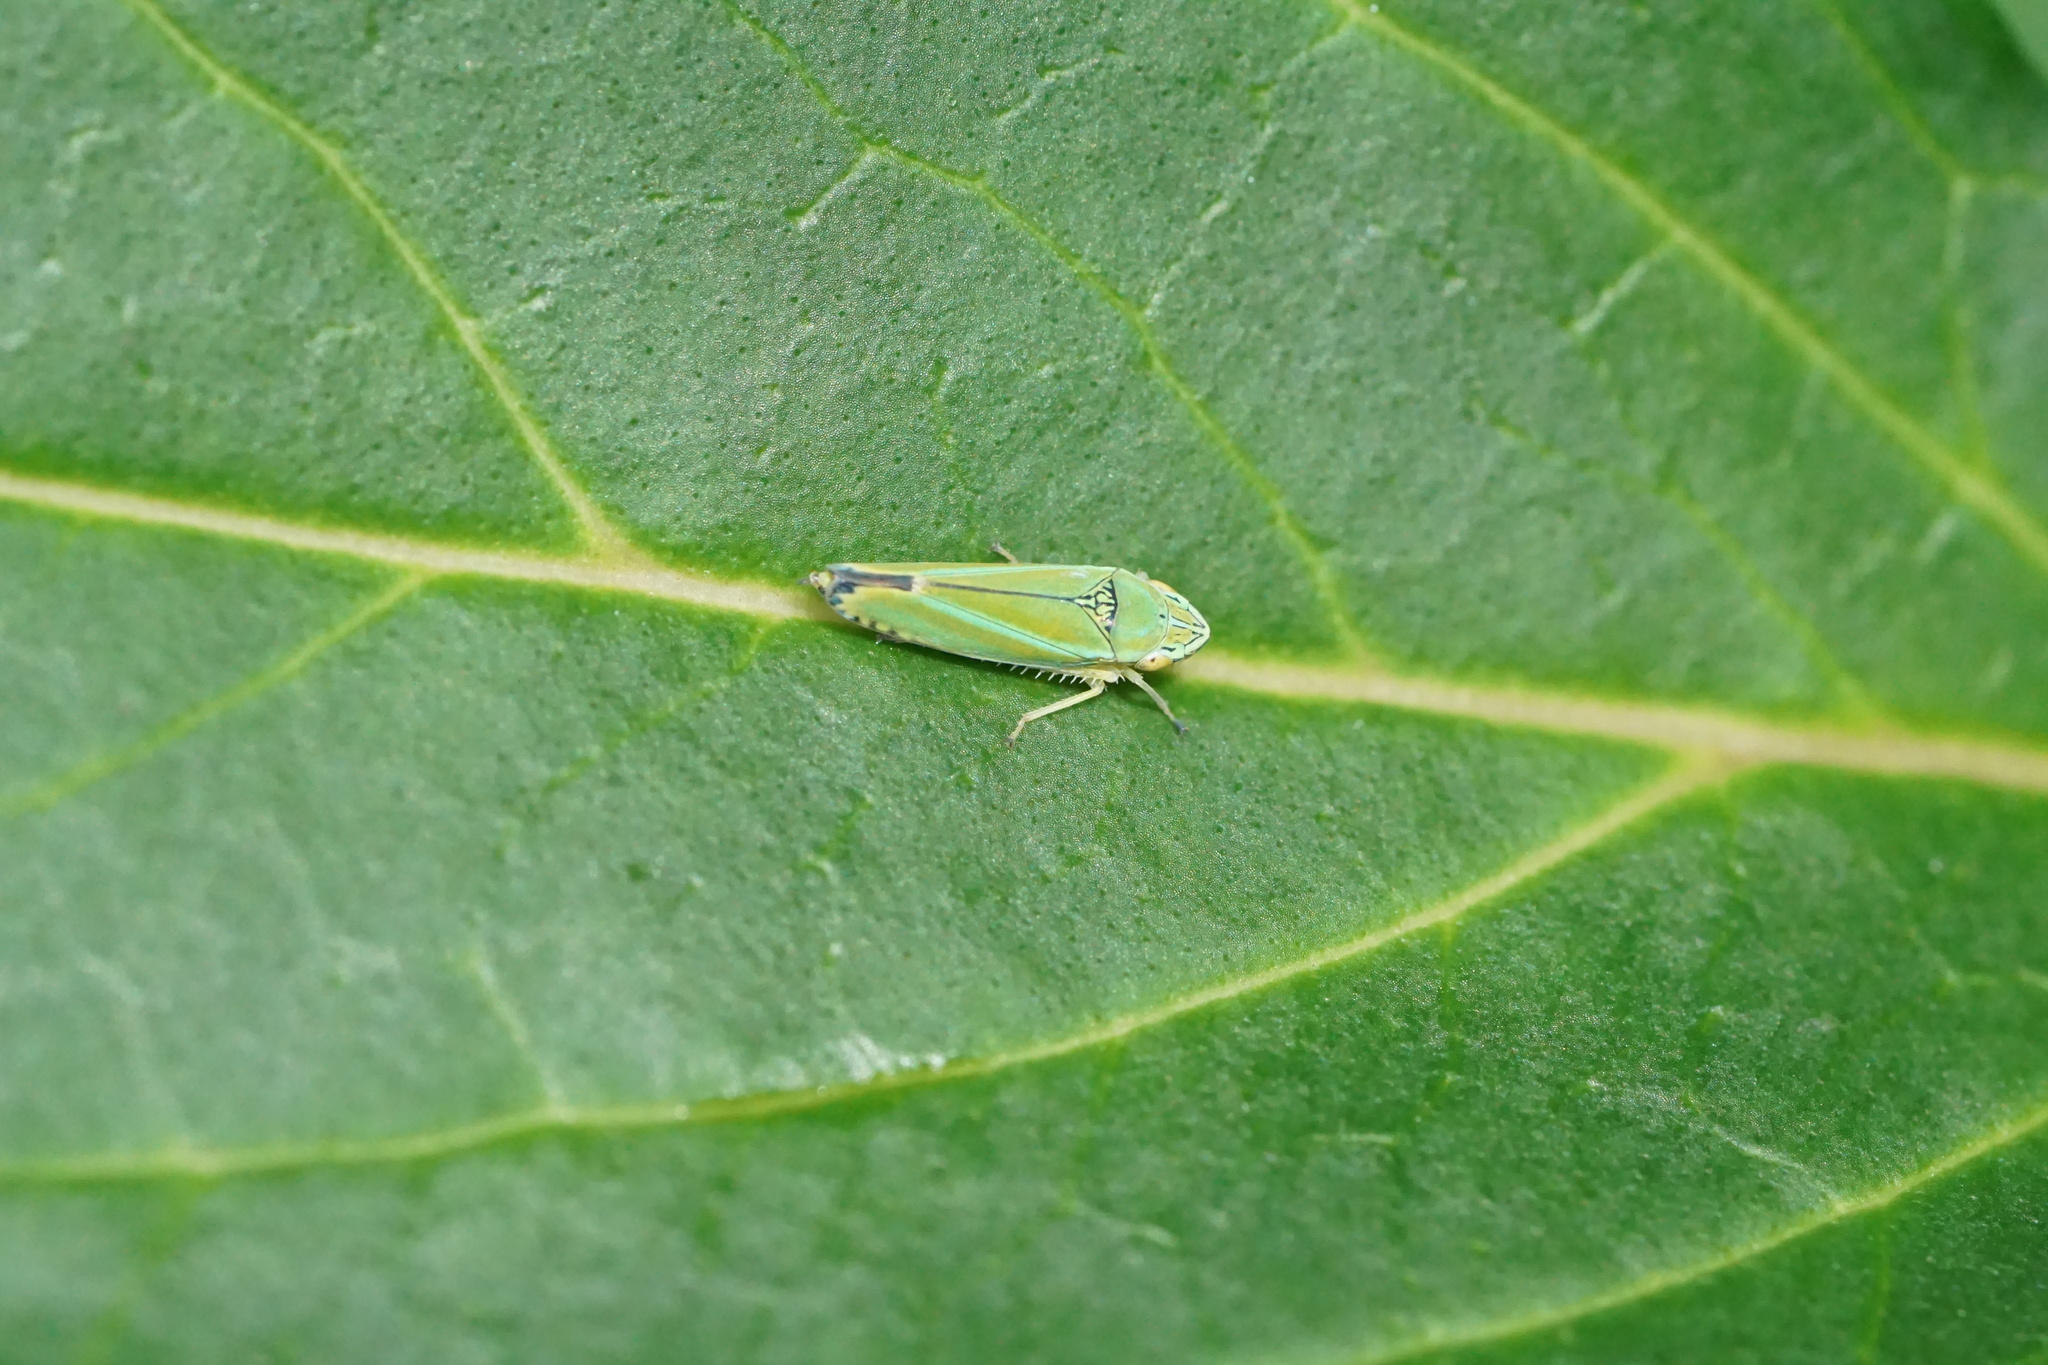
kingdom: Animalia
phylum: Arthropoda
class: Insecta
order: Hemiptera
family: Cicadellidae
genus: Graphocephala
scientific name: Graphocephala versuta
